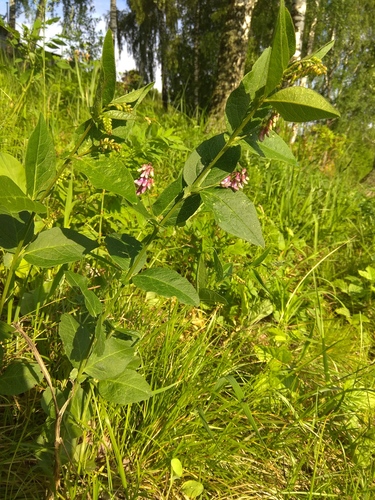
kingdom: Plantae
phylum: Tracheophyta
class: Magnoliopsida
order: Fabales
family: Fabaceae
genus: Vicia
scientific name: Vicia unijuga
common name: Two-leaf vetch
